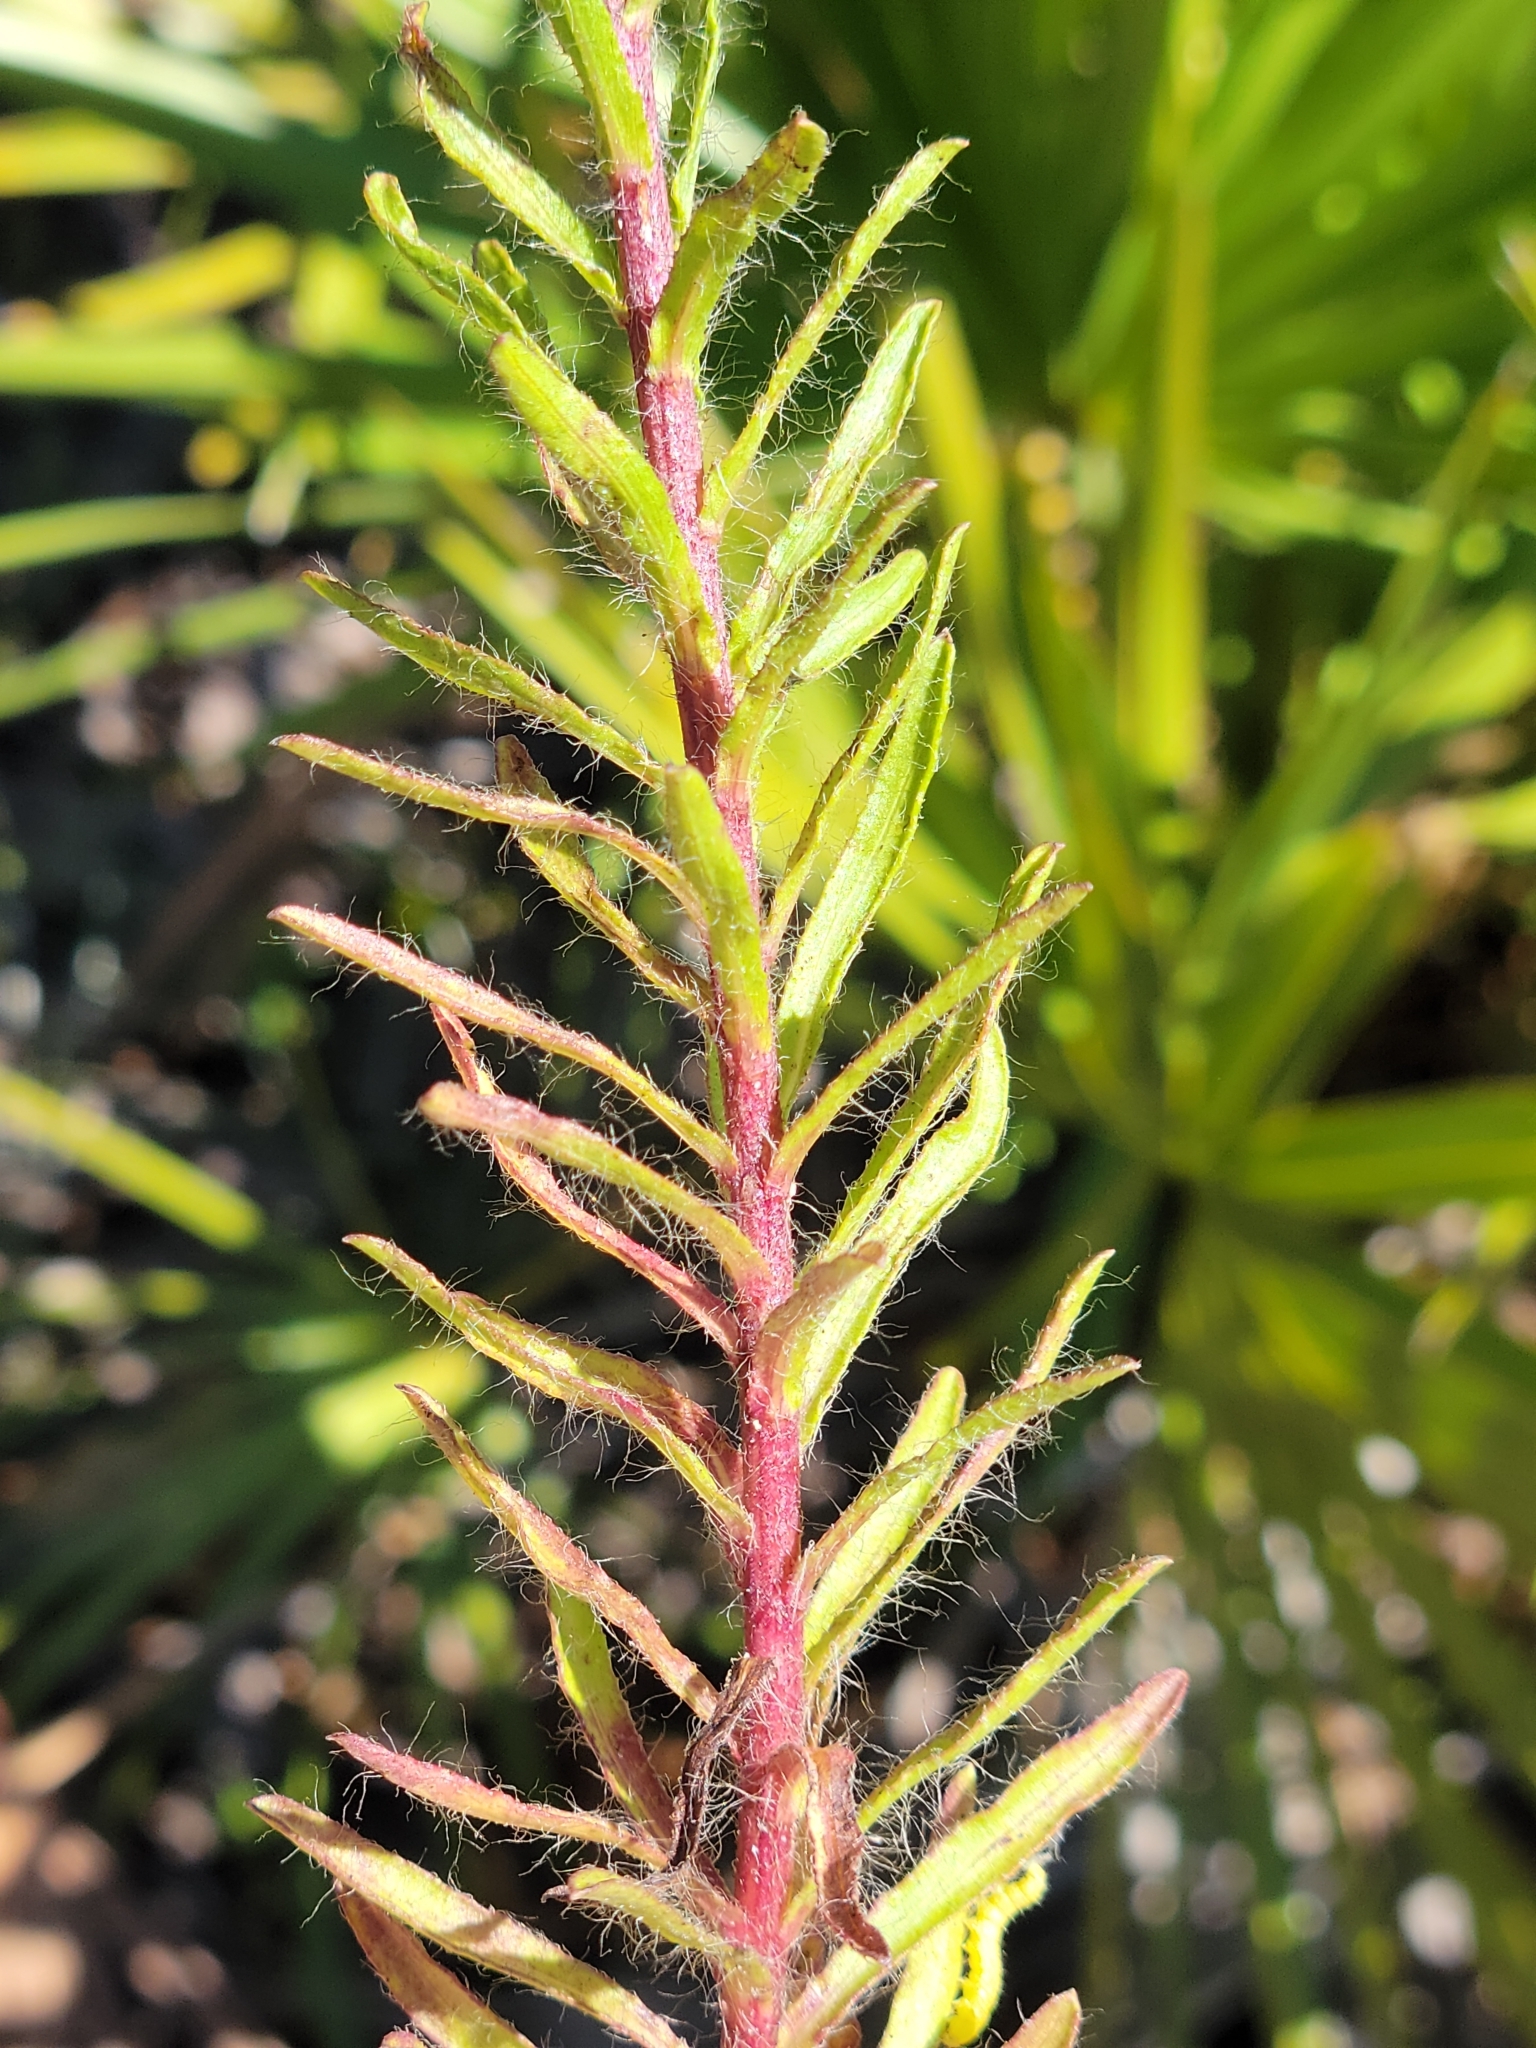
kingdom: Plantae
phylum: Tracheophyta
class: Magnoliopsida
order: Asterales
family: Asteraceae
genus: Chrysopsis
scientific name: Chrysopsis gossypina
